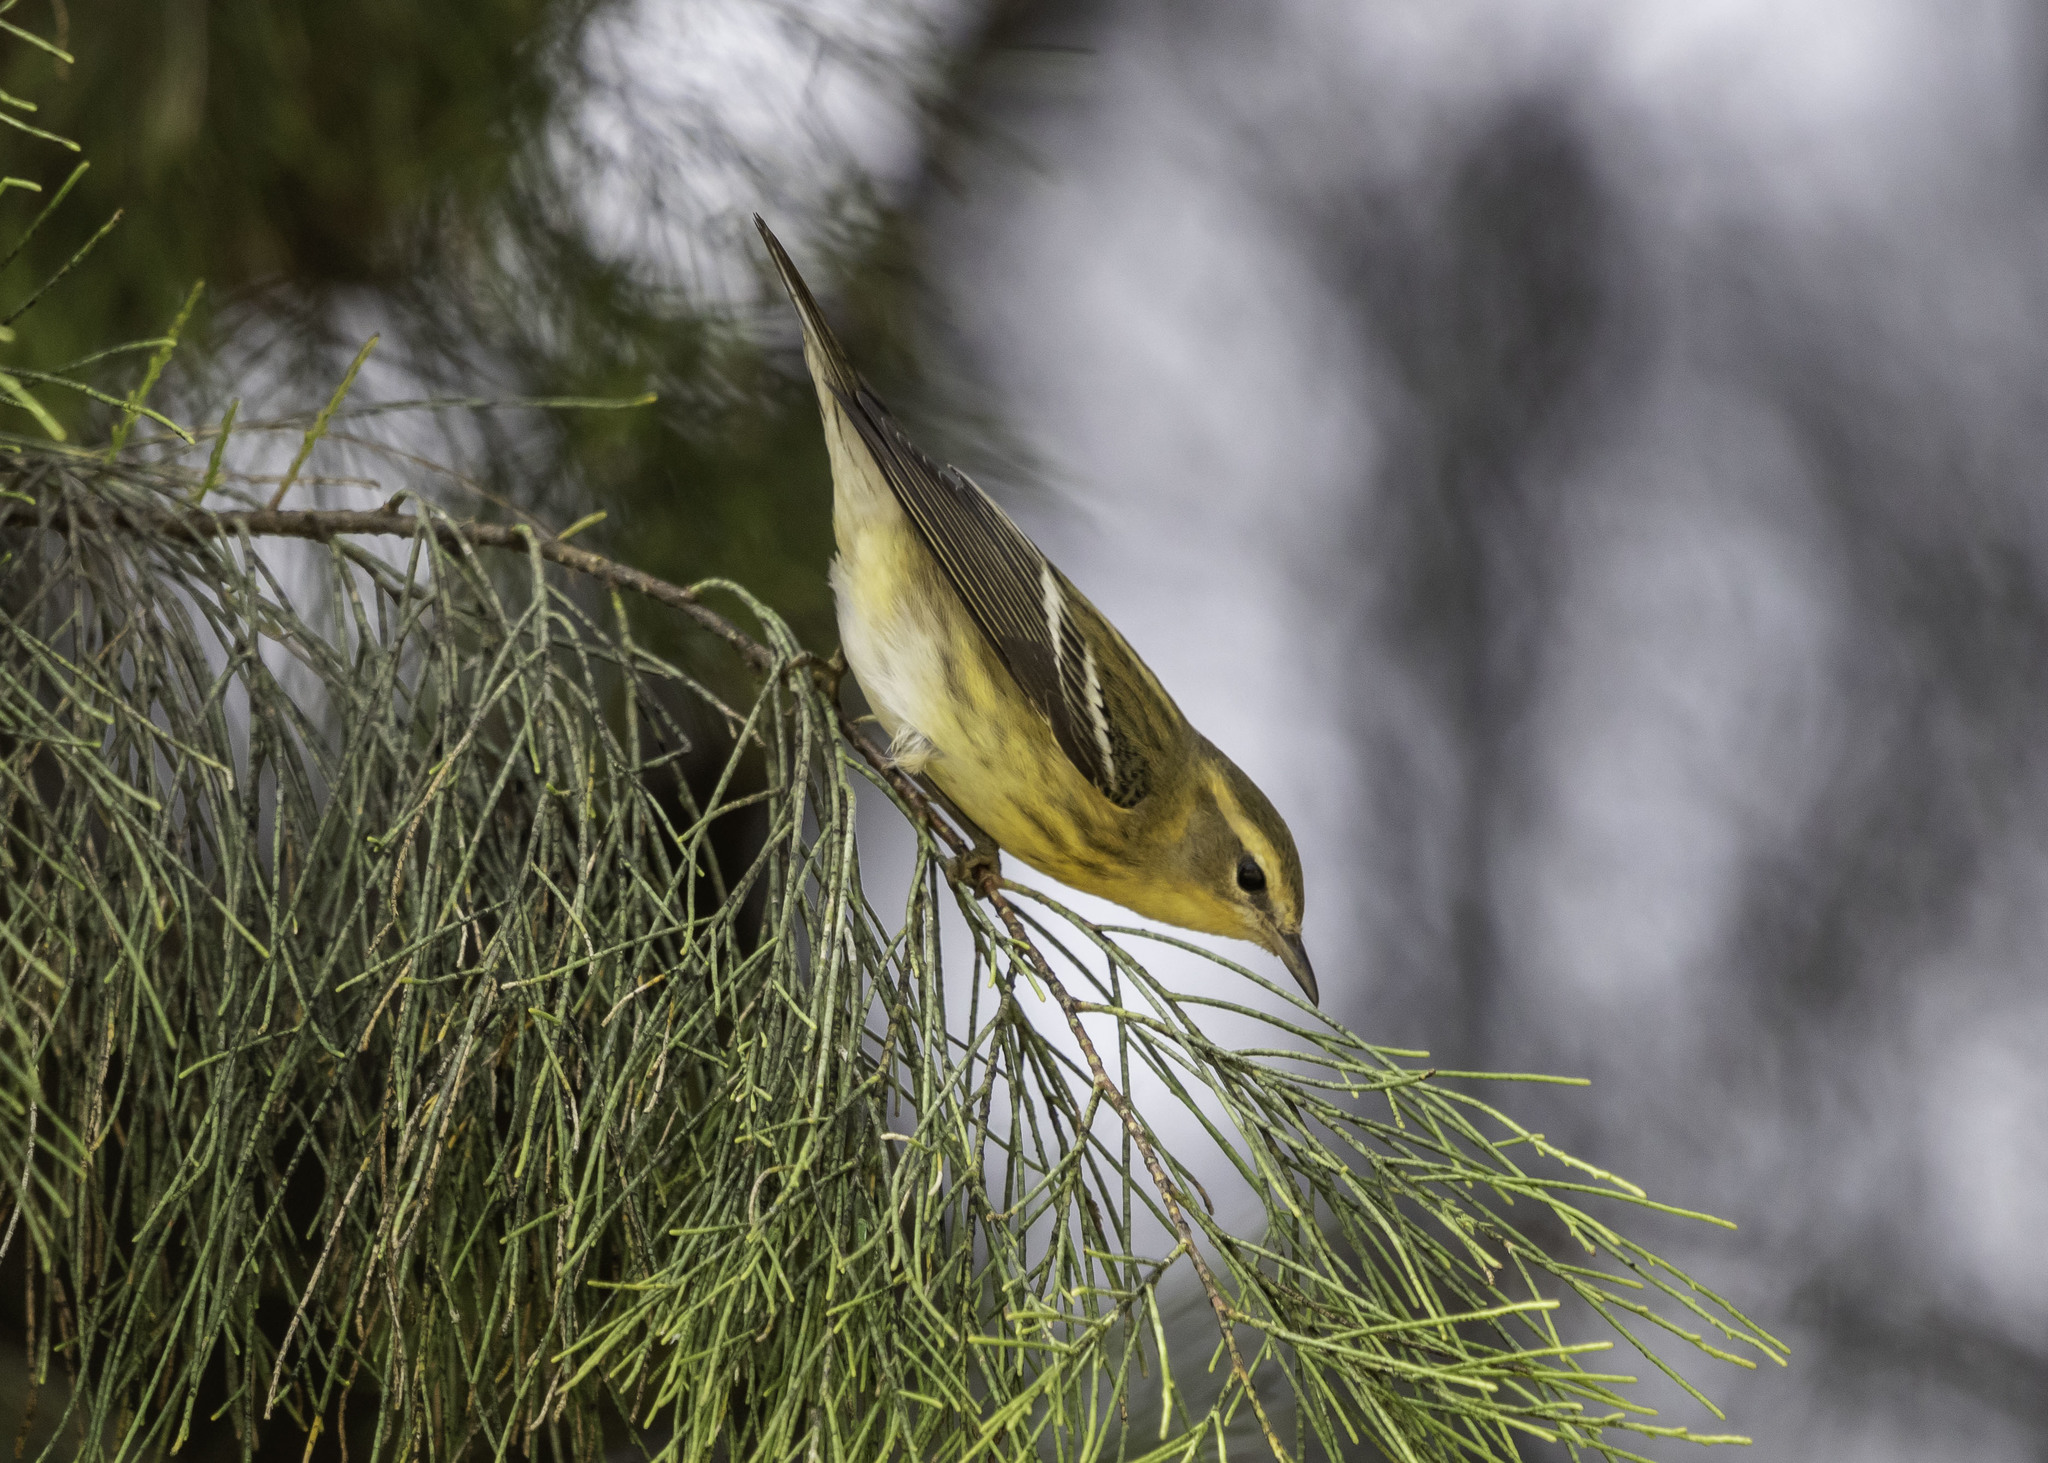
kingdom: Animalia
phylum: Chordata
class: Aves
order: Passeriformes
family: Parulidae
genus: Setophaga
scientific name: Setophaga fusca
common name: Blackburnian warbler
